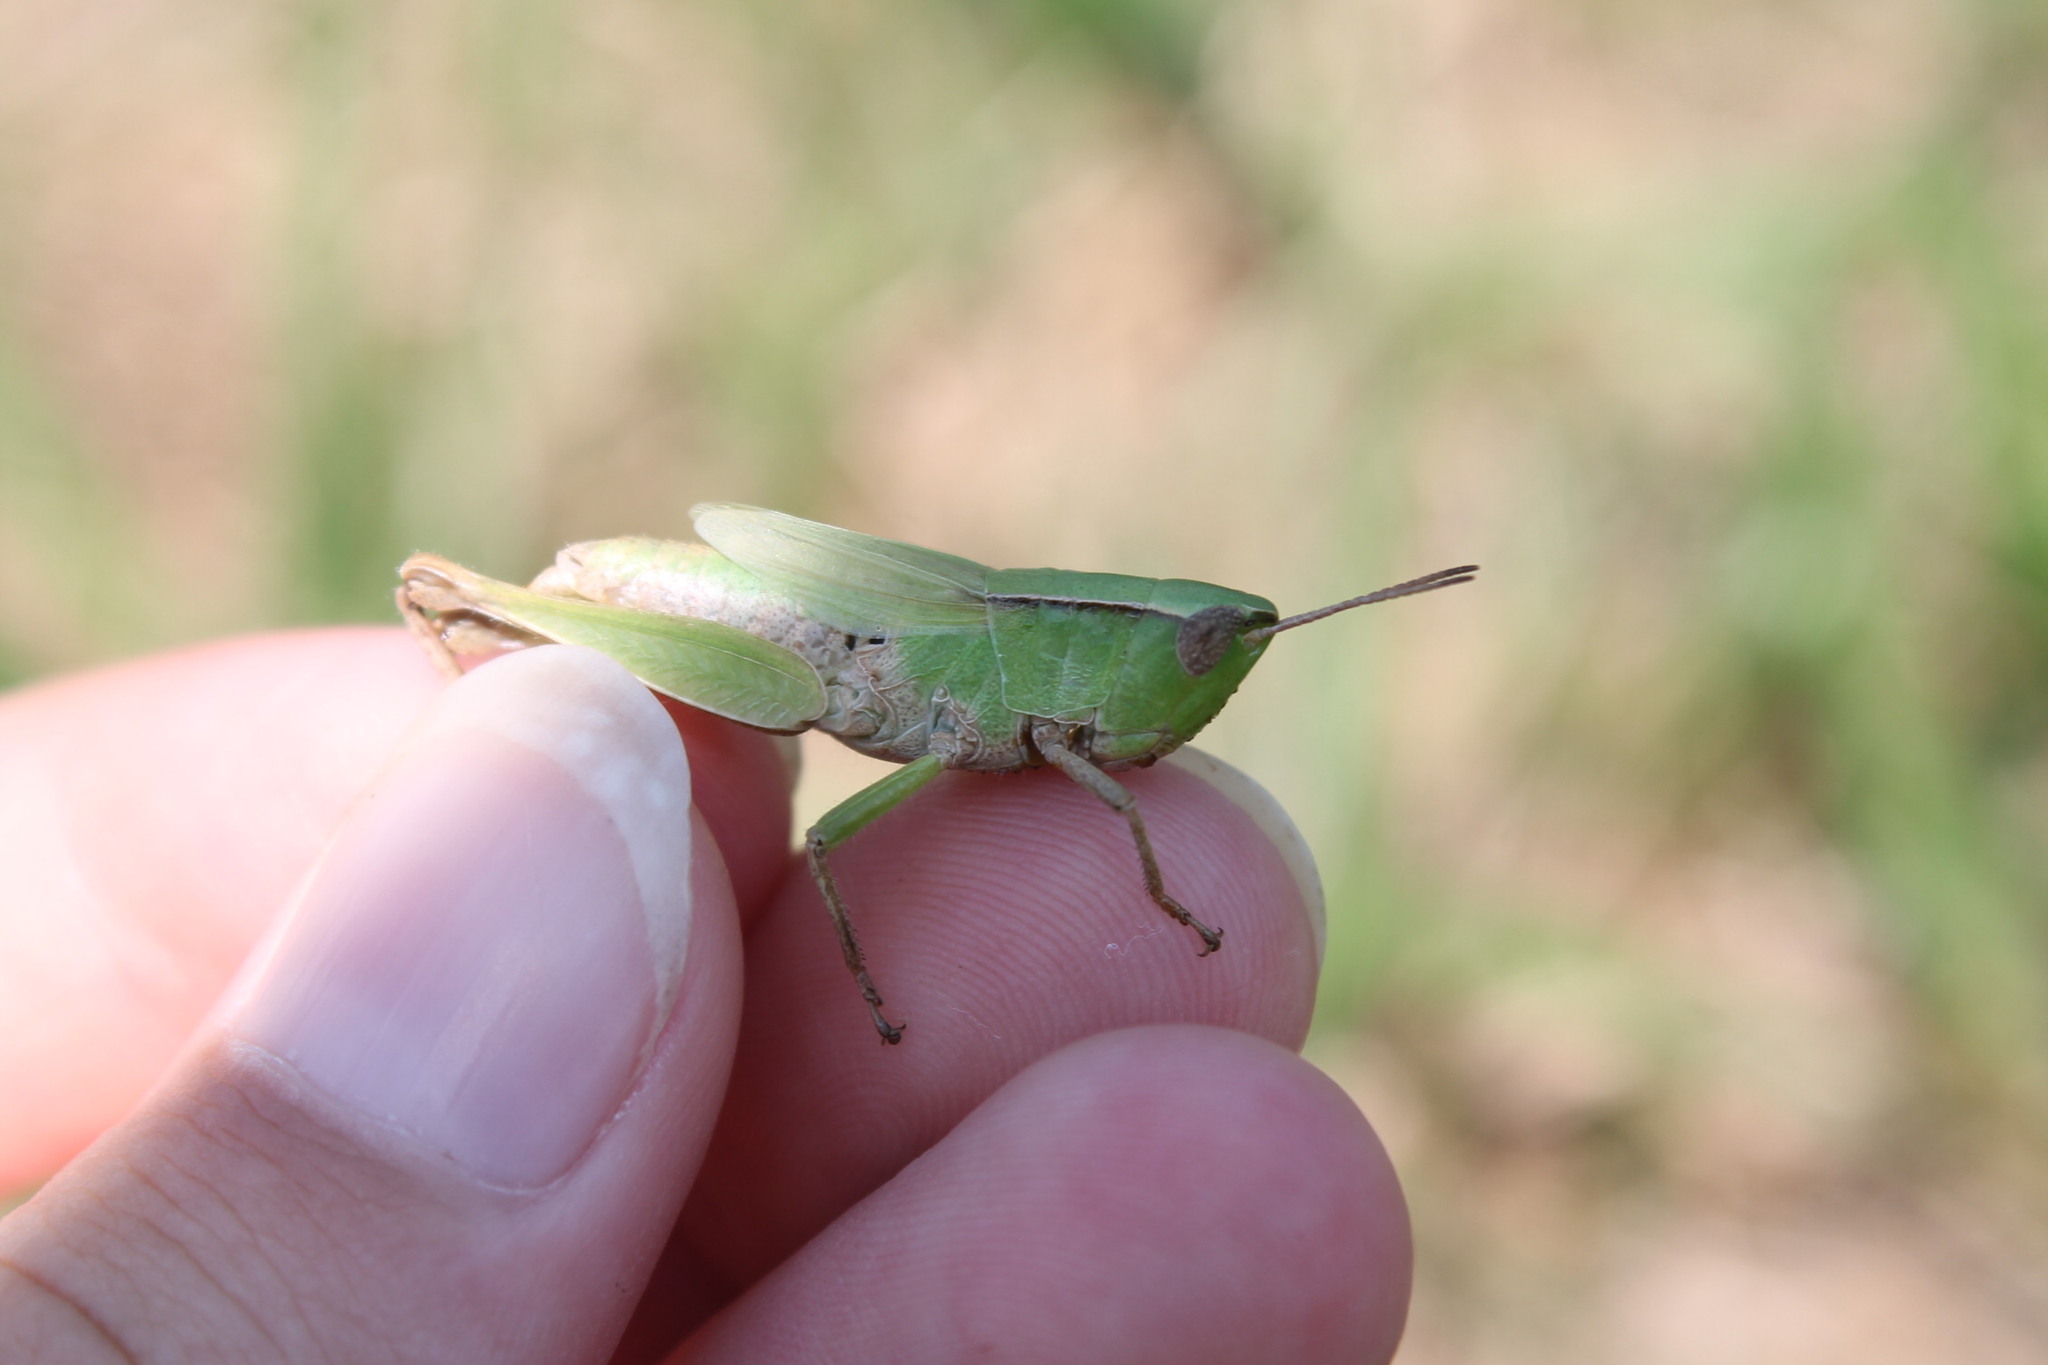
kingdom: Animalia
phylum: Arthropoda
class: Insecta
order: Orthoptera
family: Acrididae
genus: Dichromorpha
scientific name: Dichromorpha viridis
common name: Short-winged green grasshopper
